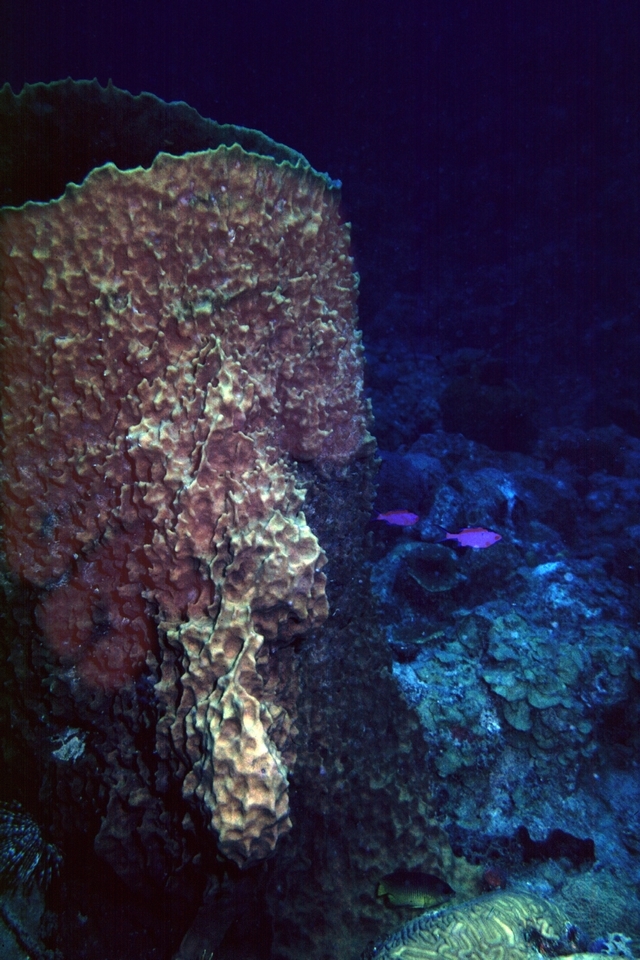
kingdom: Animalia
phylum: Porifera
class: Demospongiae
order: Haplosclerida
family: Petrosiidae
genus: Xestospongia
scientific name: Xestospongia muta
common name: Giant barrel sponge
